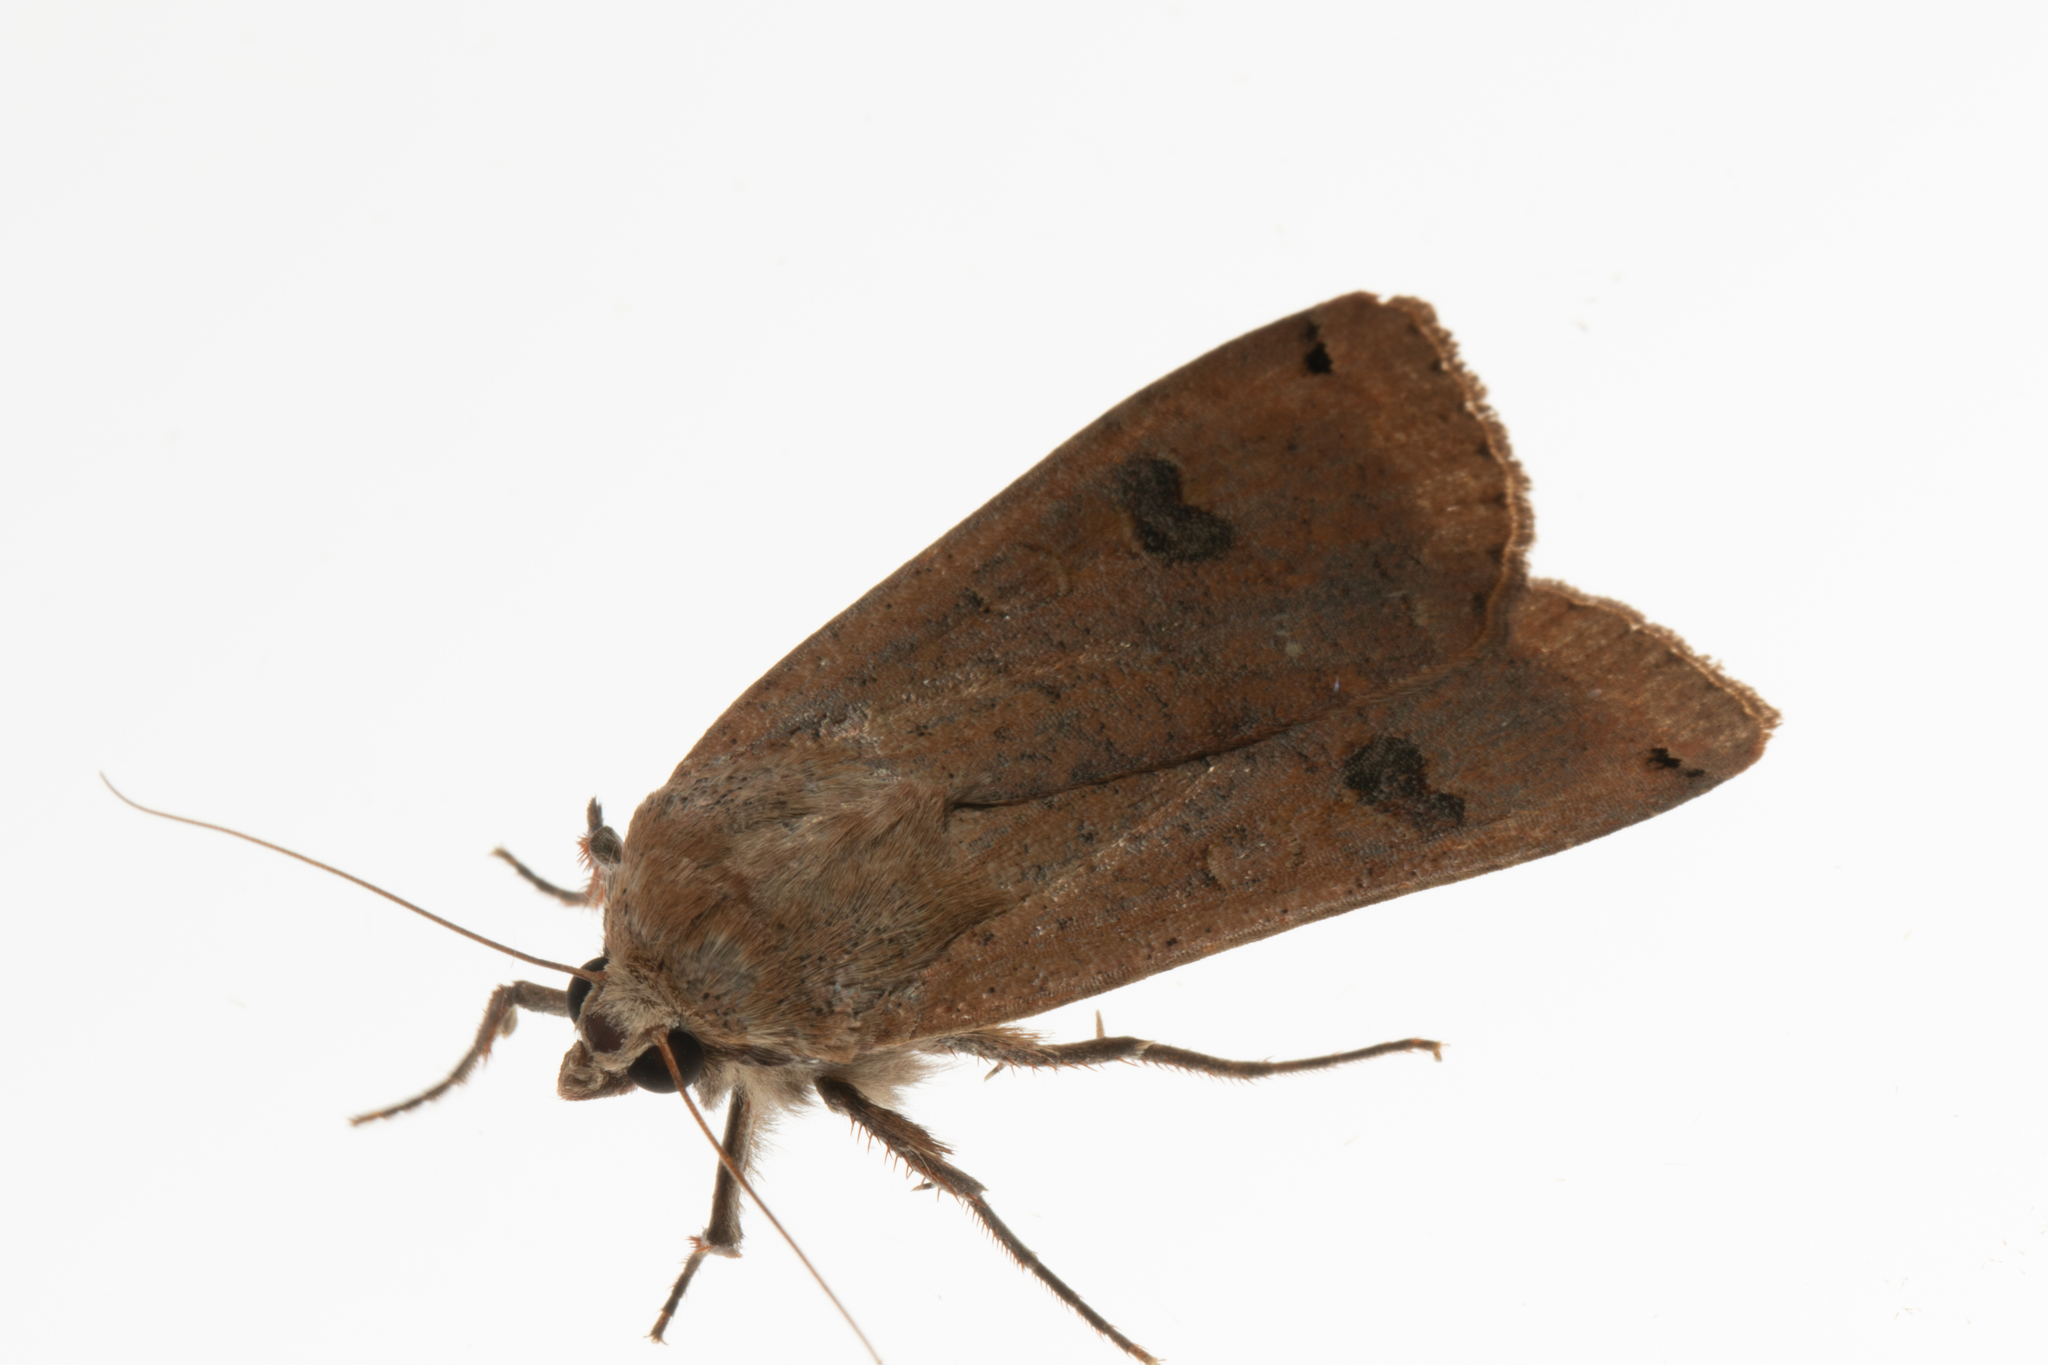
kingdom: Animalia
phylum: Arthropoda
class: Insecta
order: Lepidoptera
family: Noctuidae
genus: Noctua
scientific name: Noctua pronuba
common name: Large yellow underwing
